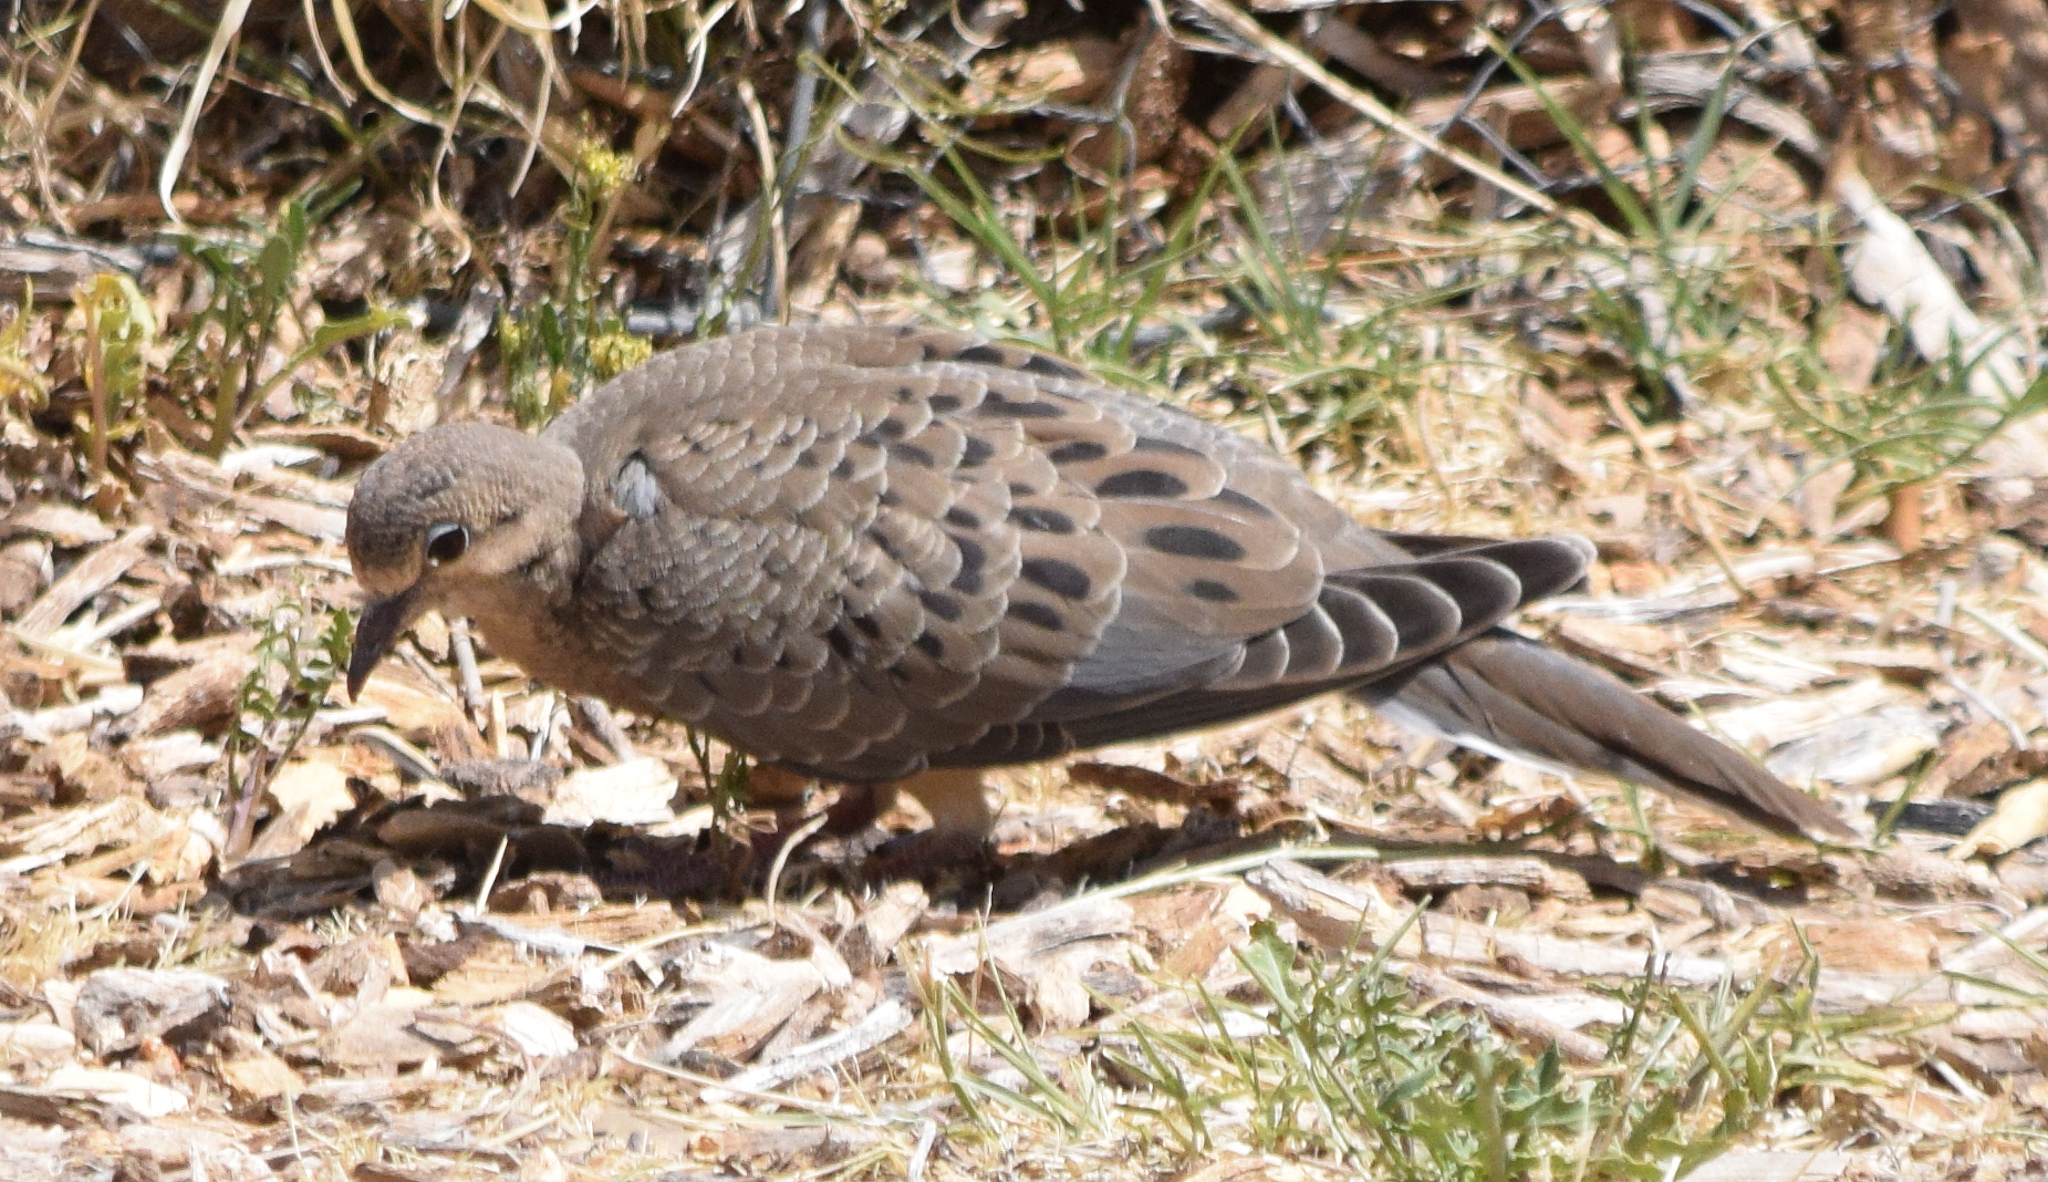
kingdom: Animalia
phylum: Chordata
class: Aves
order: Columbiformes
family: Columbidae
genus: Zenaida
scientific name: Zenaida macroura
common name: Mourning dove
